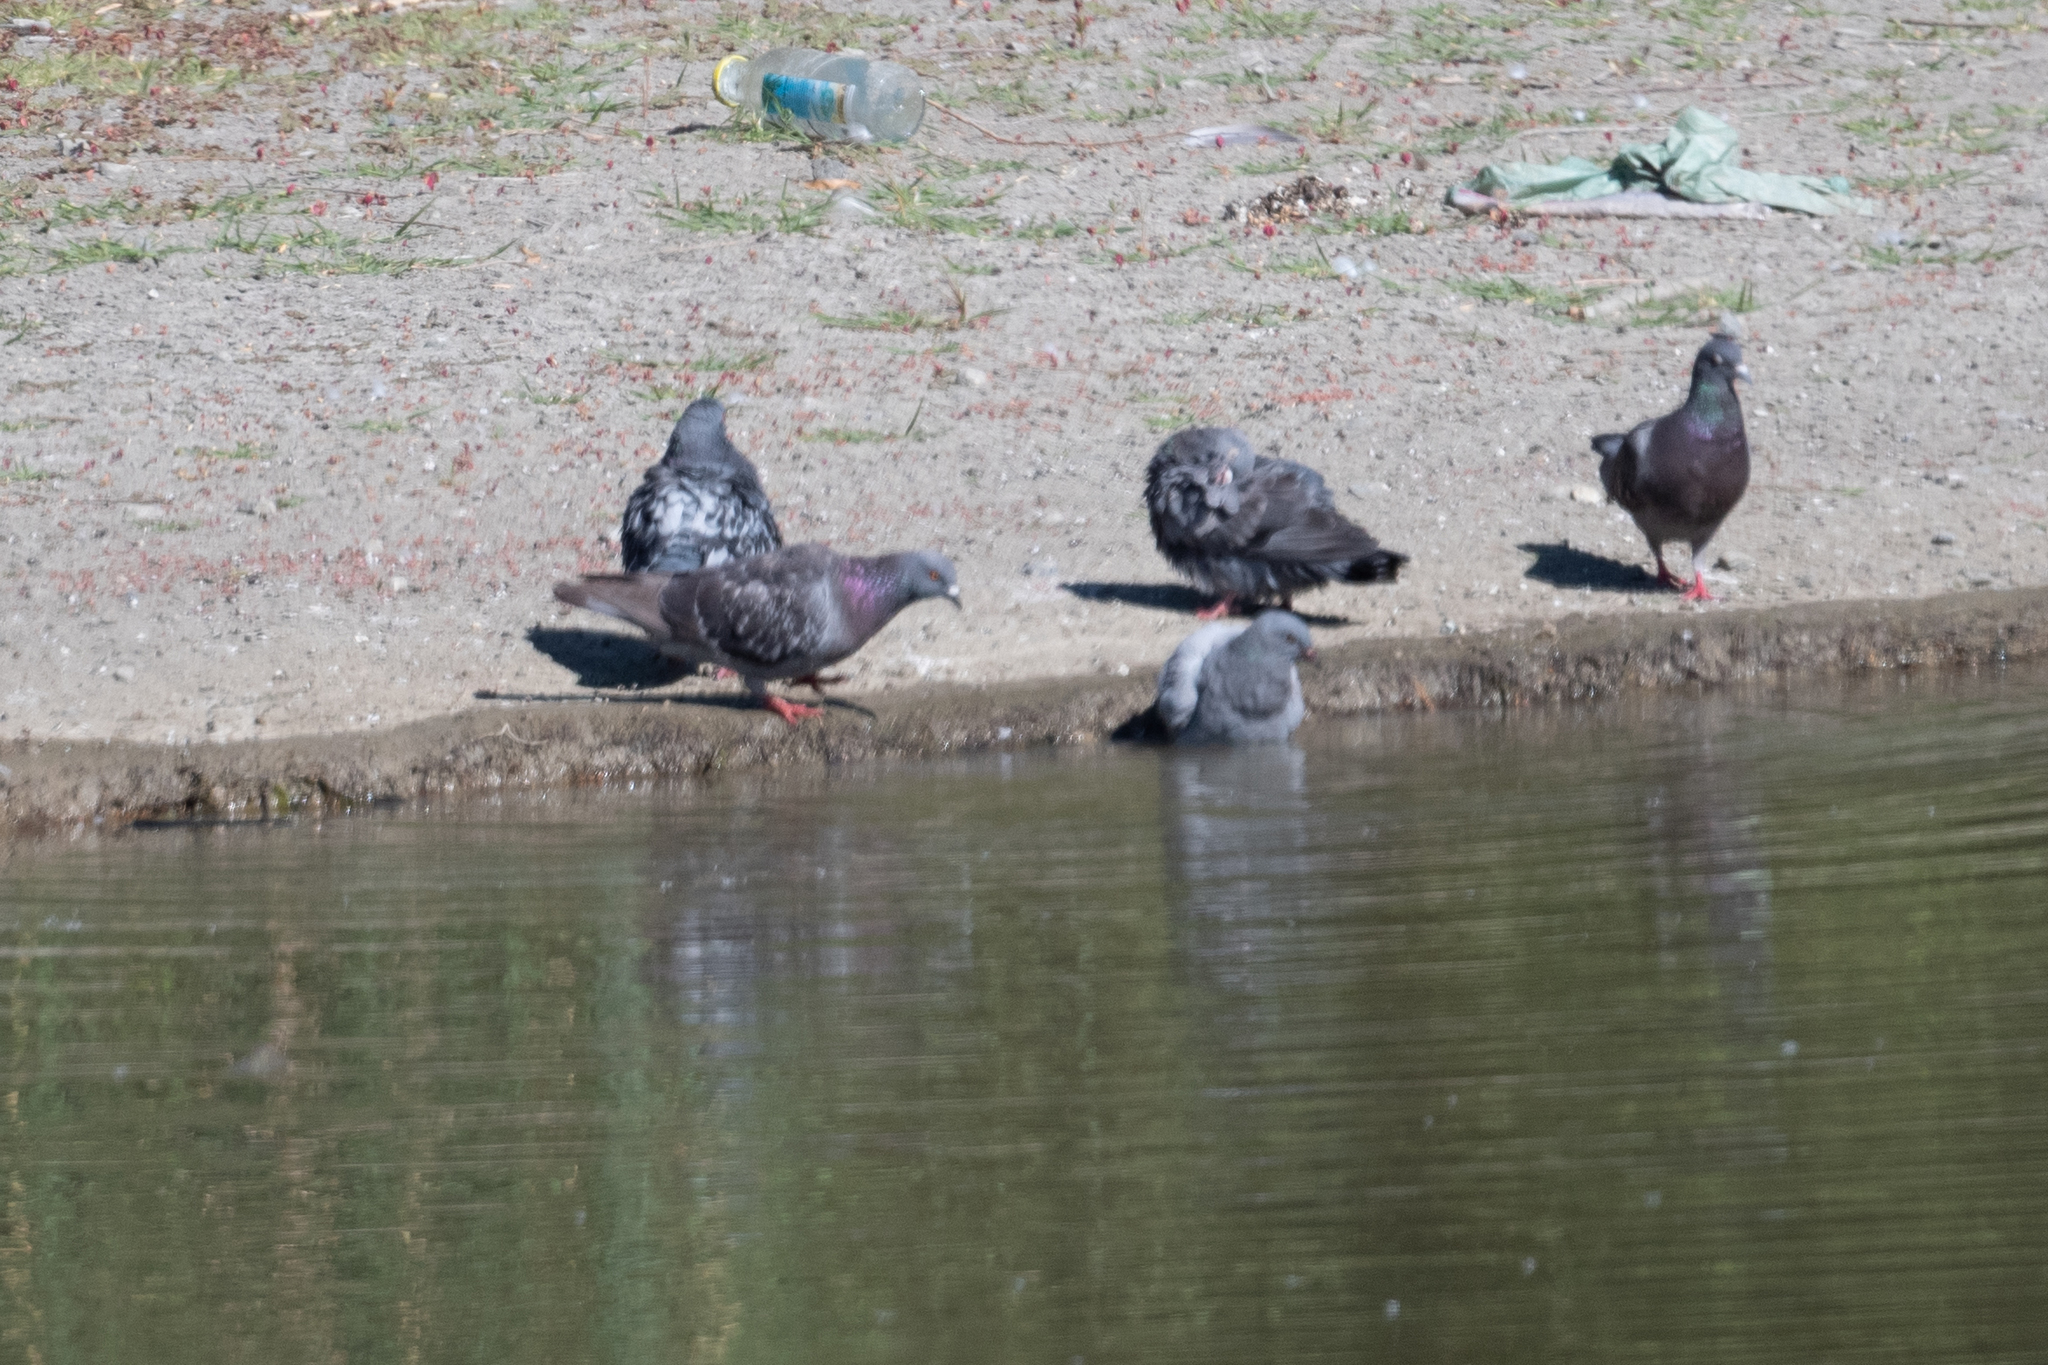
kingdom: Animalia
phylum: Chordata
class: Aves
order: Columbiformes
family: Columbidae
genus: Columba
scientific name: Columba livia
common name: Rock pigeon
